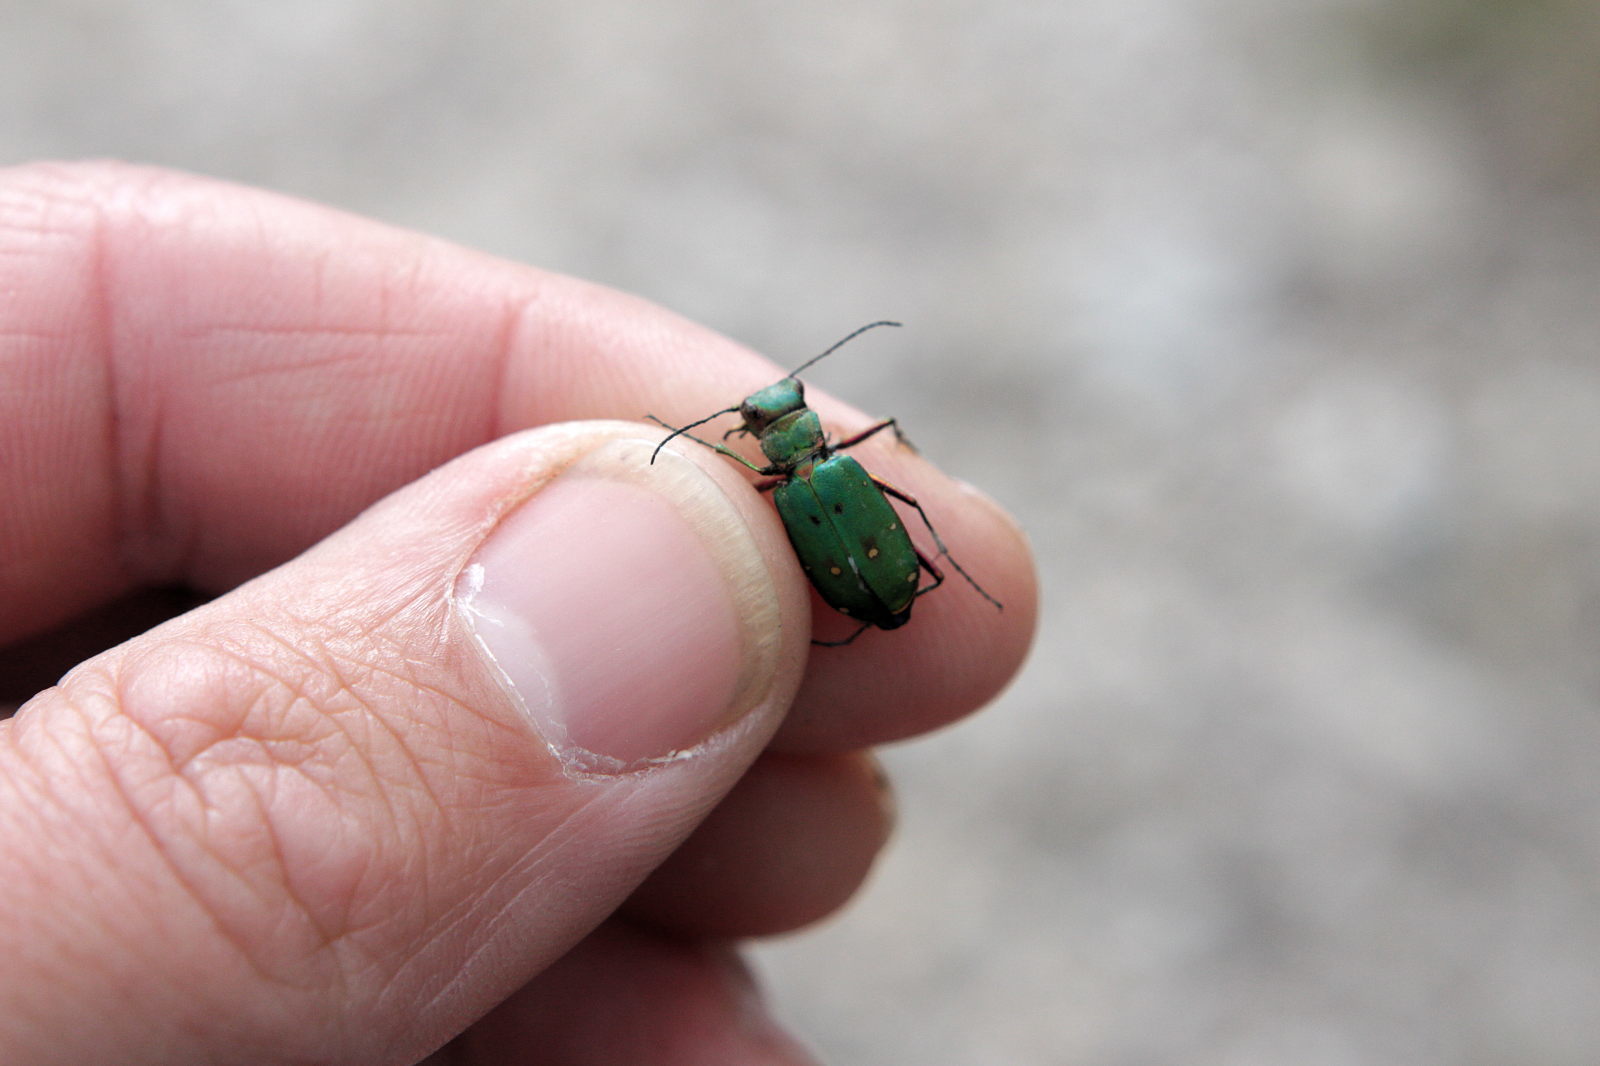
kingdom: Animalia
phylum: Arthropoda
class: Insecta
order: Coleoptera
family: Carabidae
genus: Cicindela
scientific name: Cicindela campestris
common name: Common tiger beetle
